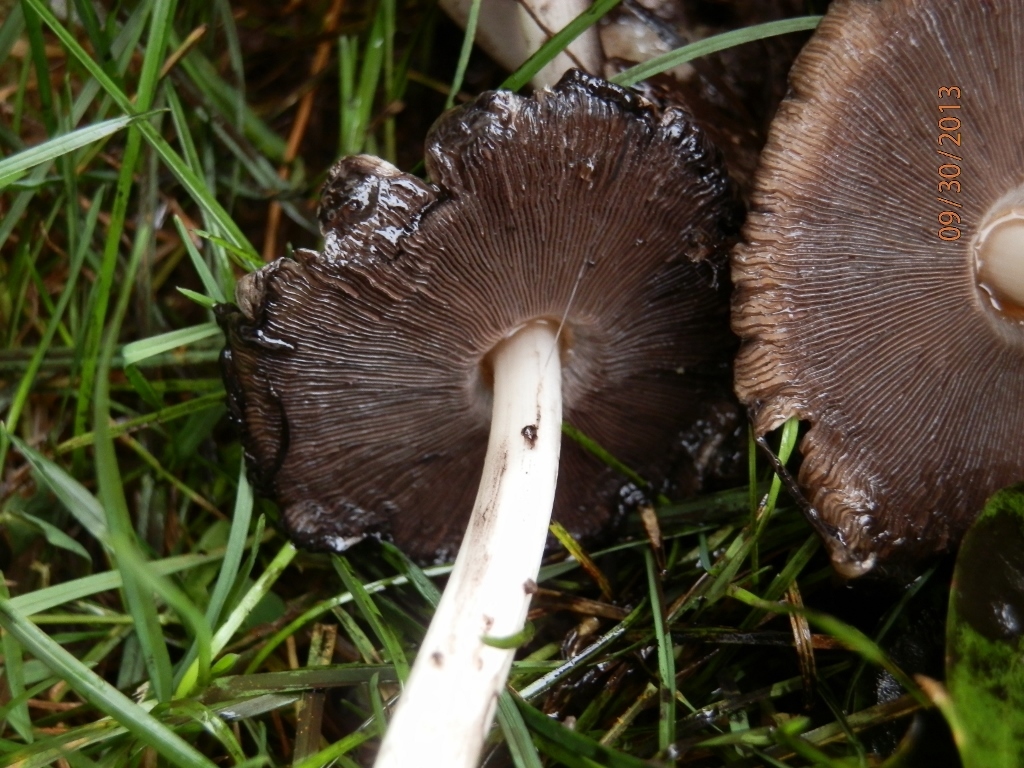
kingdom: Fungi
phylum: Basidiomycota
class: Agaricomycetes
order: Agaricales
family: Psathyrellaceae
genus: Coprinopsis
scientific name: Coprinopsis atramentaria
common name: Common ink-cap
